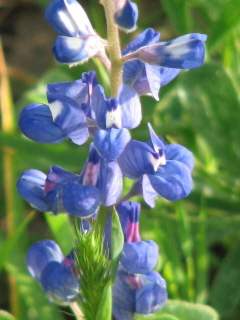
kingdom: Plantae
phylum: Tracheophyta
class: Magnoliopsida
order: Fabales
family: Fabaceae
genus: Lupinus
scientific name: Lupinus subcarnosus
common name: Texas bluebonnet
